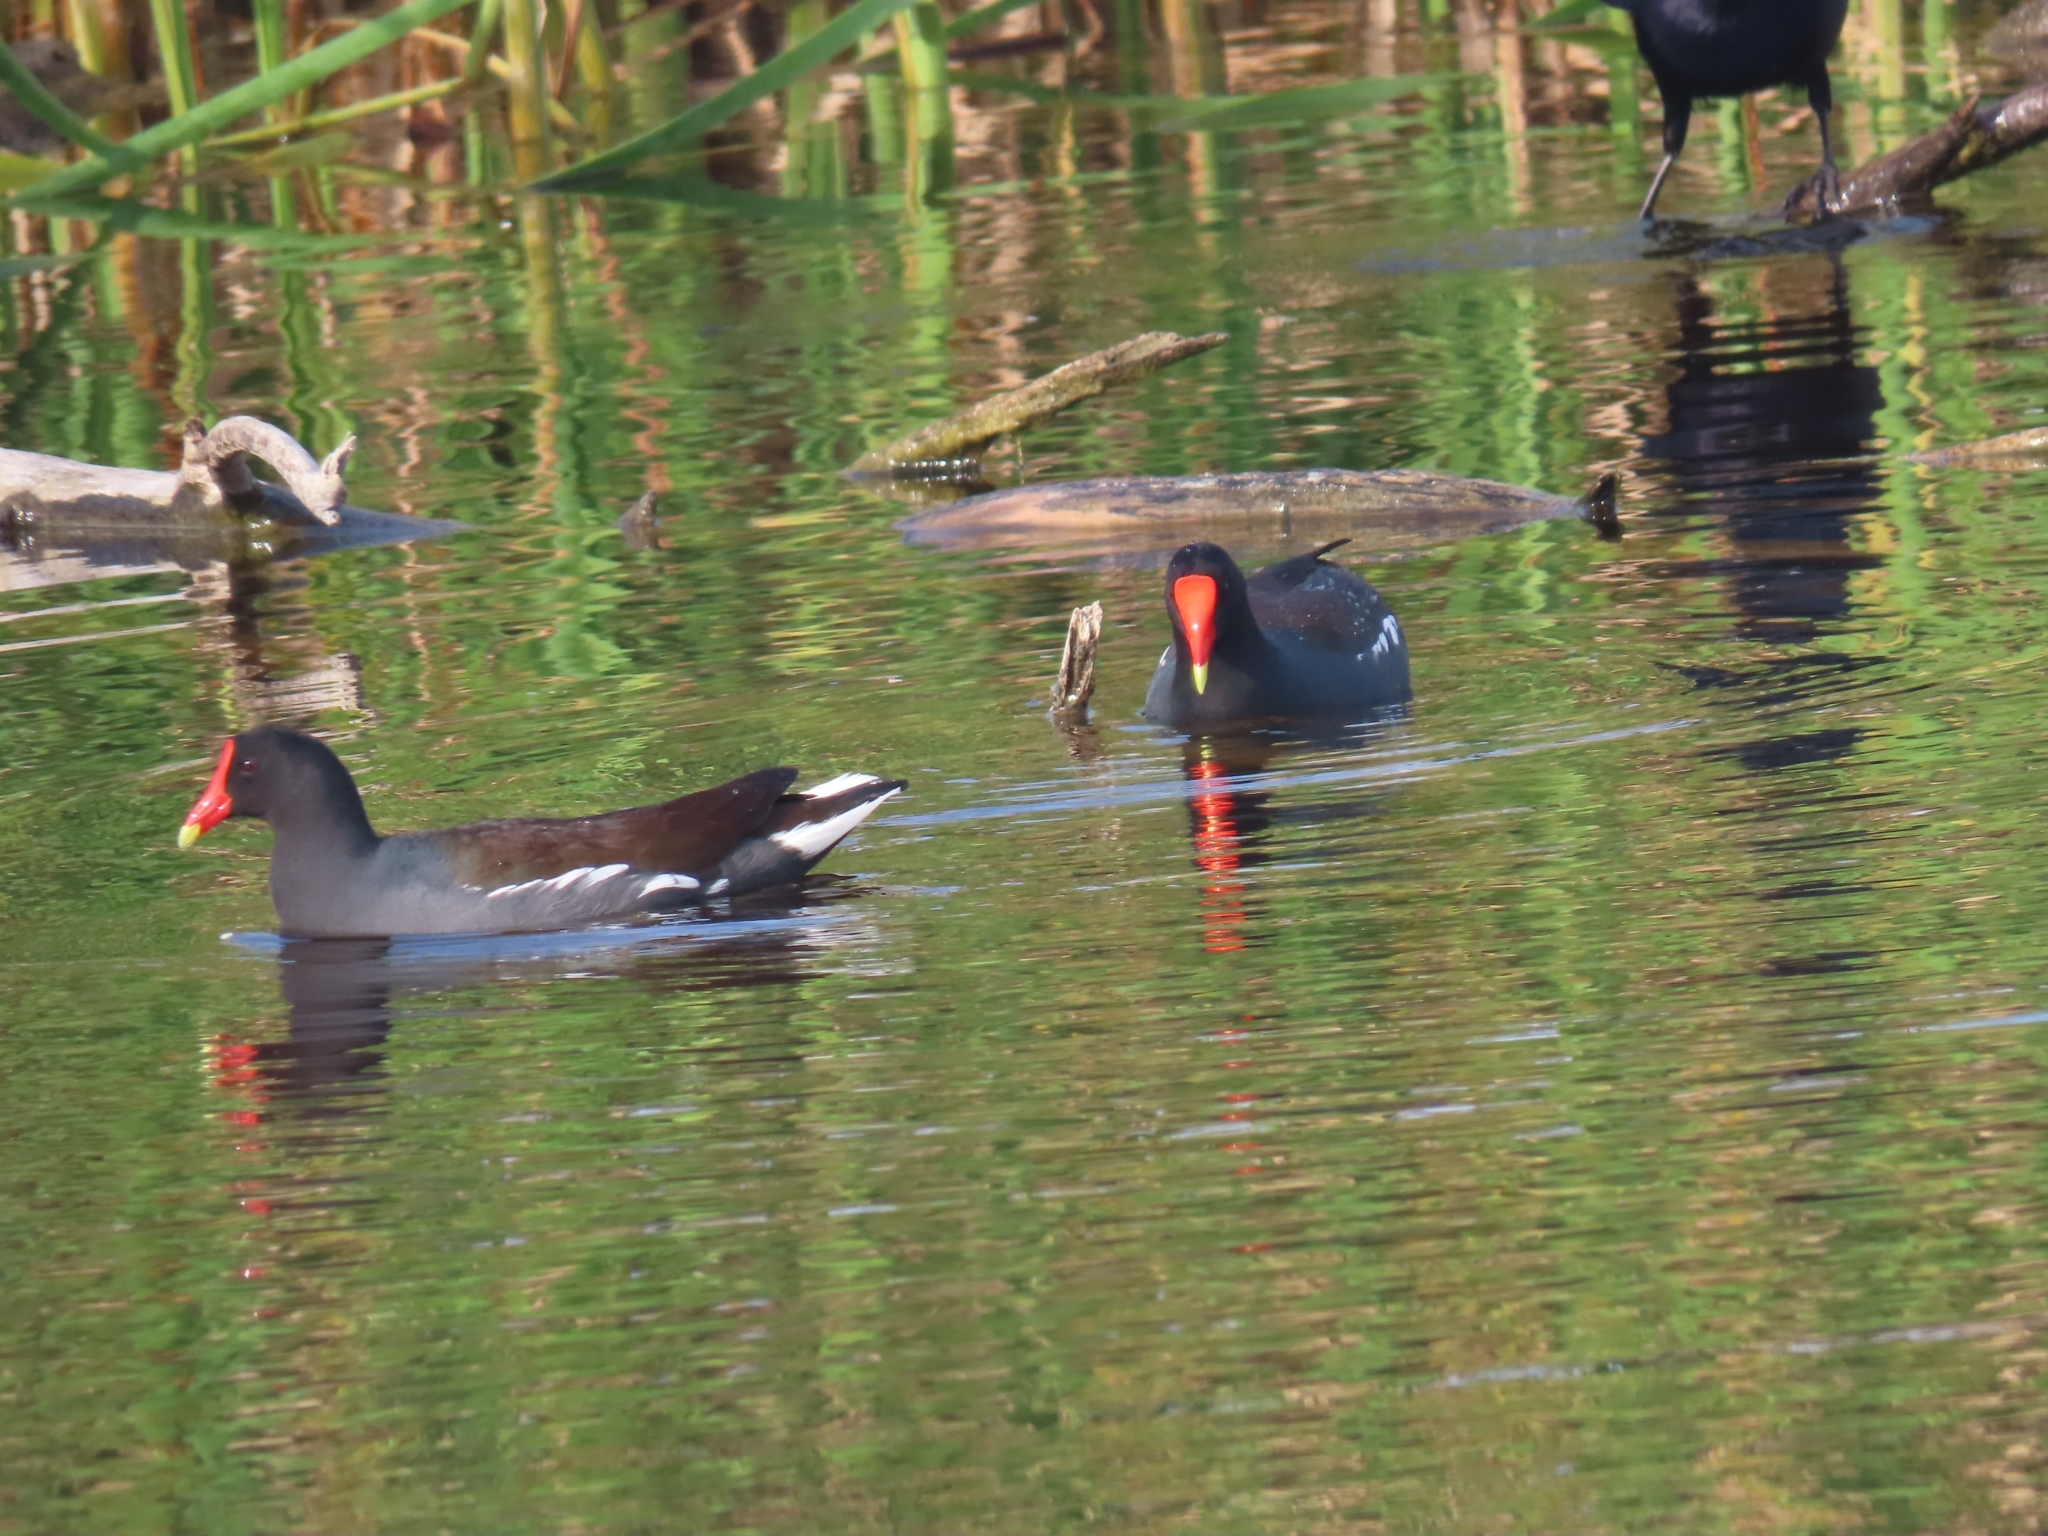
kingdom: Animalia
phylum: Chordata
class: Aves
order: Gruiformes
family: Rallidae
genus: Gallinula
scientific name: Gallinula chloropus
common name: Common moorhen
